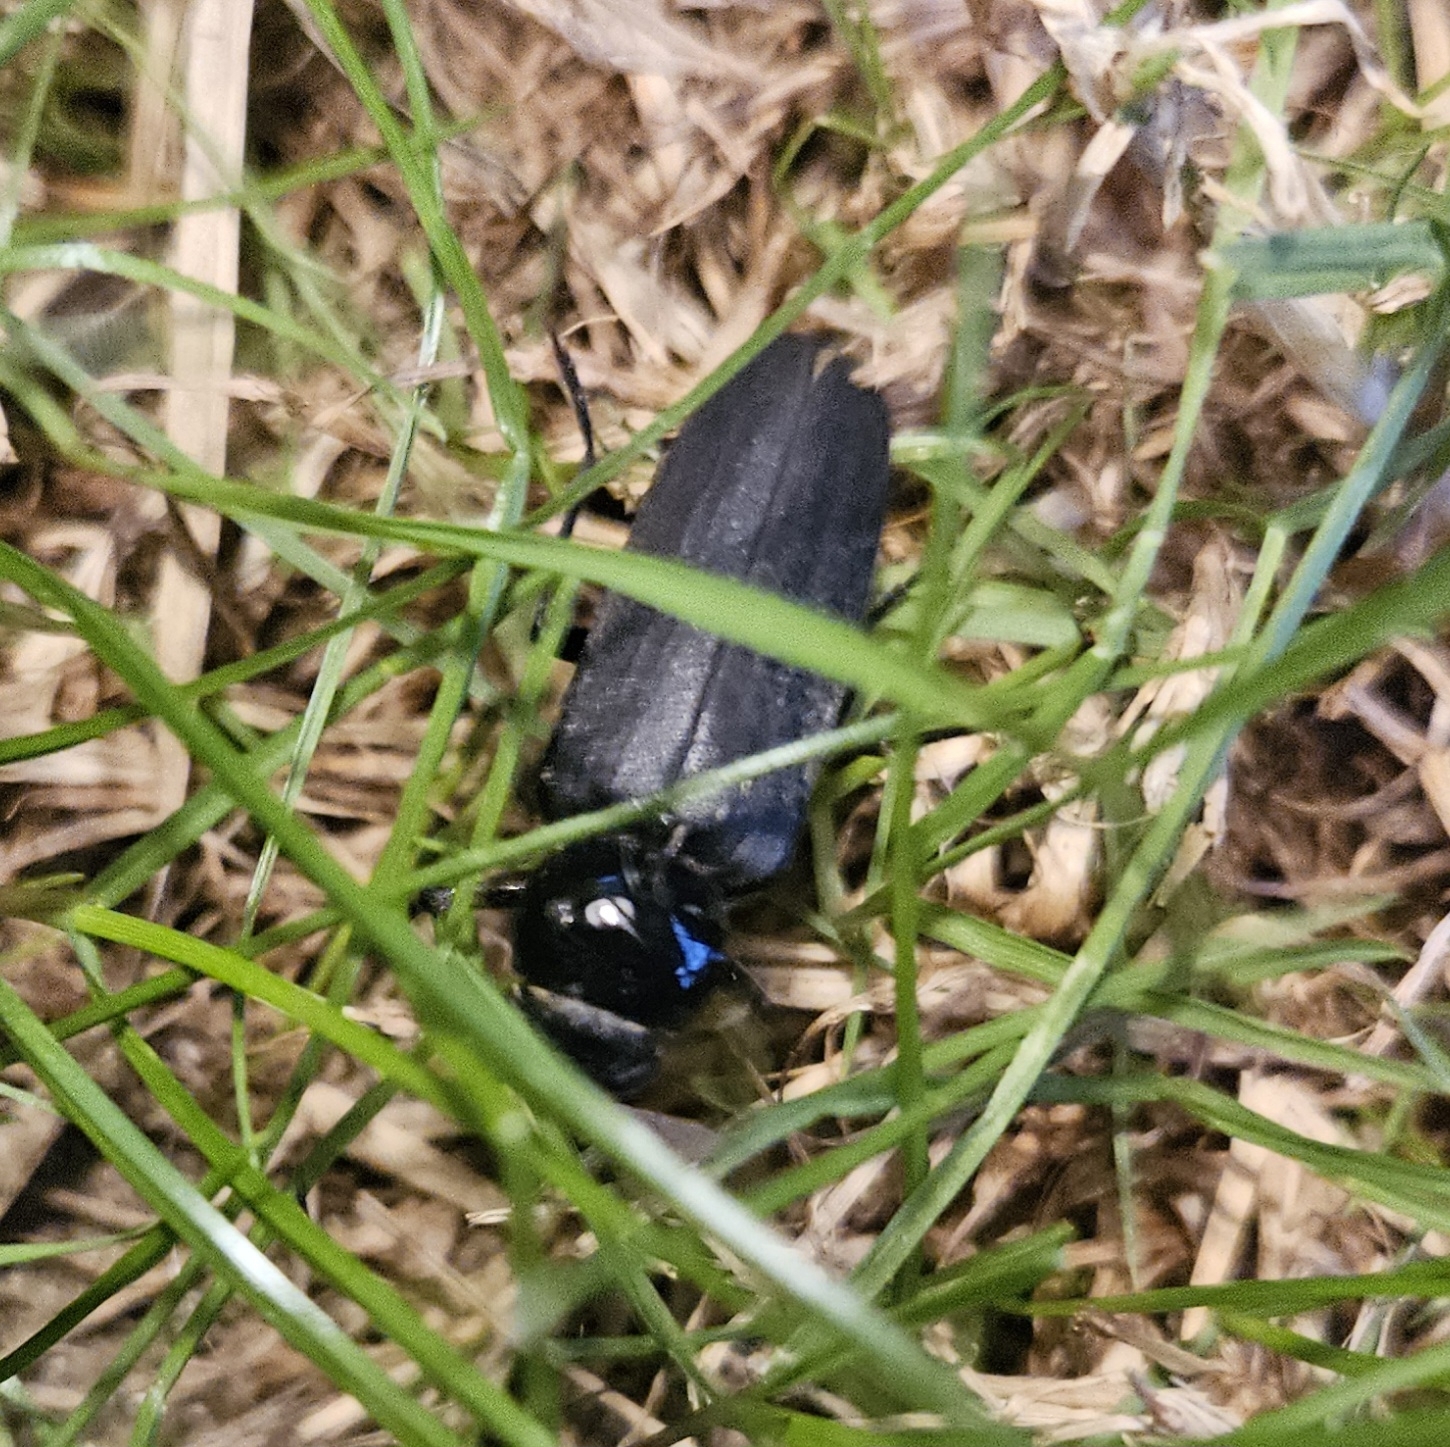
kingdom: Animalia
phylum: Arthropoda
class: Insecta
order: Coleoptera
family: Cerambycidae
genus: Arhopalus
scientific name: Arhopalus ferus
